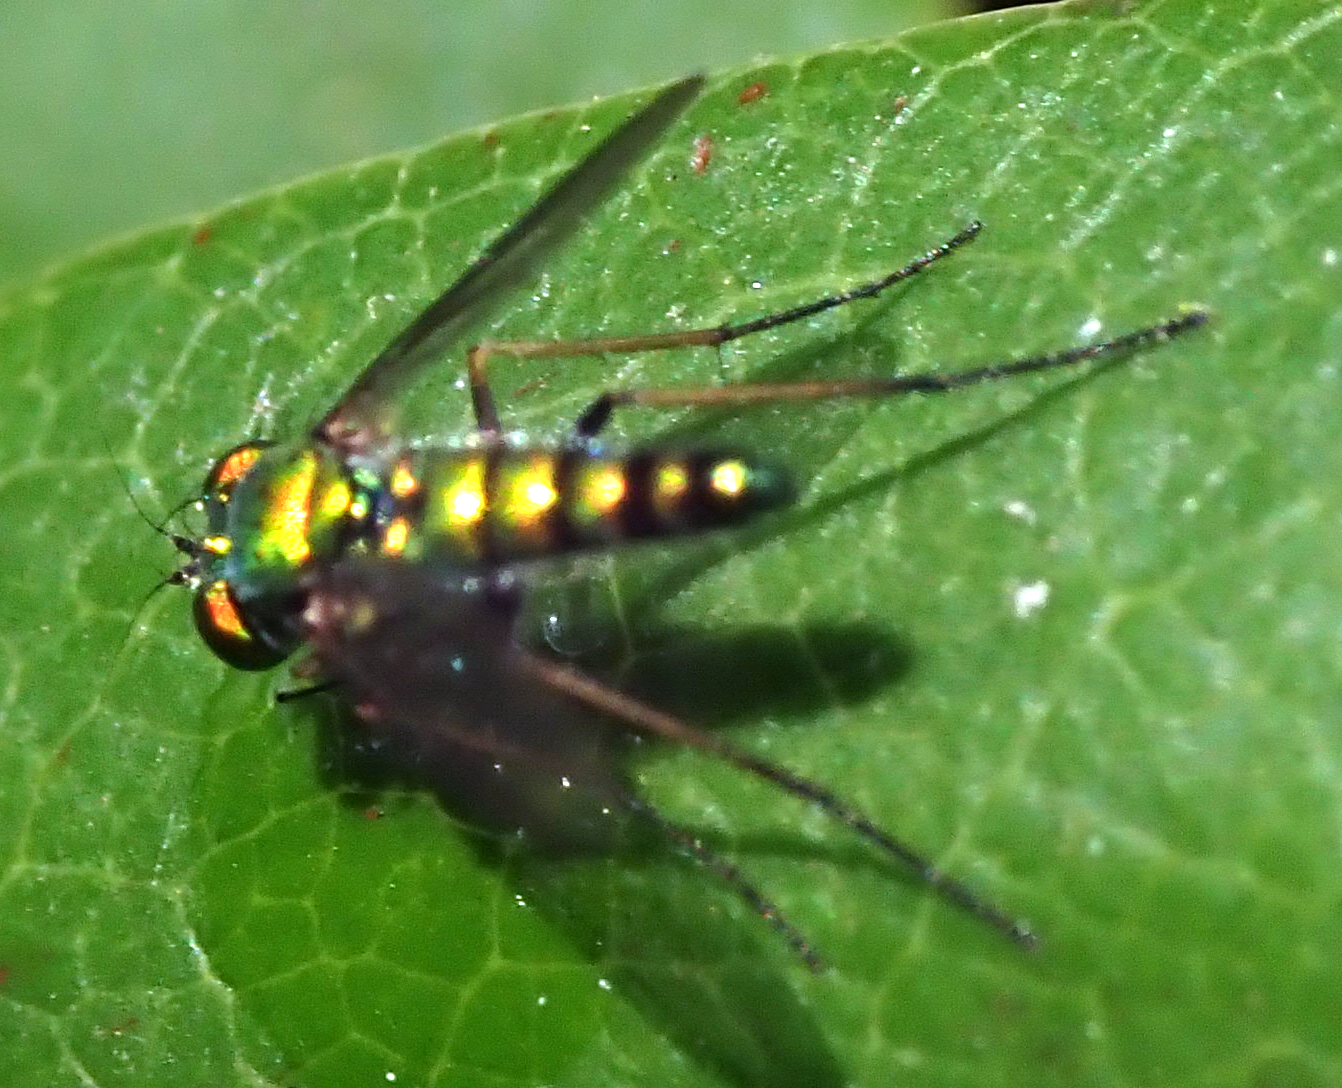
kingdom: Animalia
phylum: Arthropoda
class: Insecta
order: Diptera
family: Dolichopodidae
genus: Condylostylus
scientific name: Condylostylus
